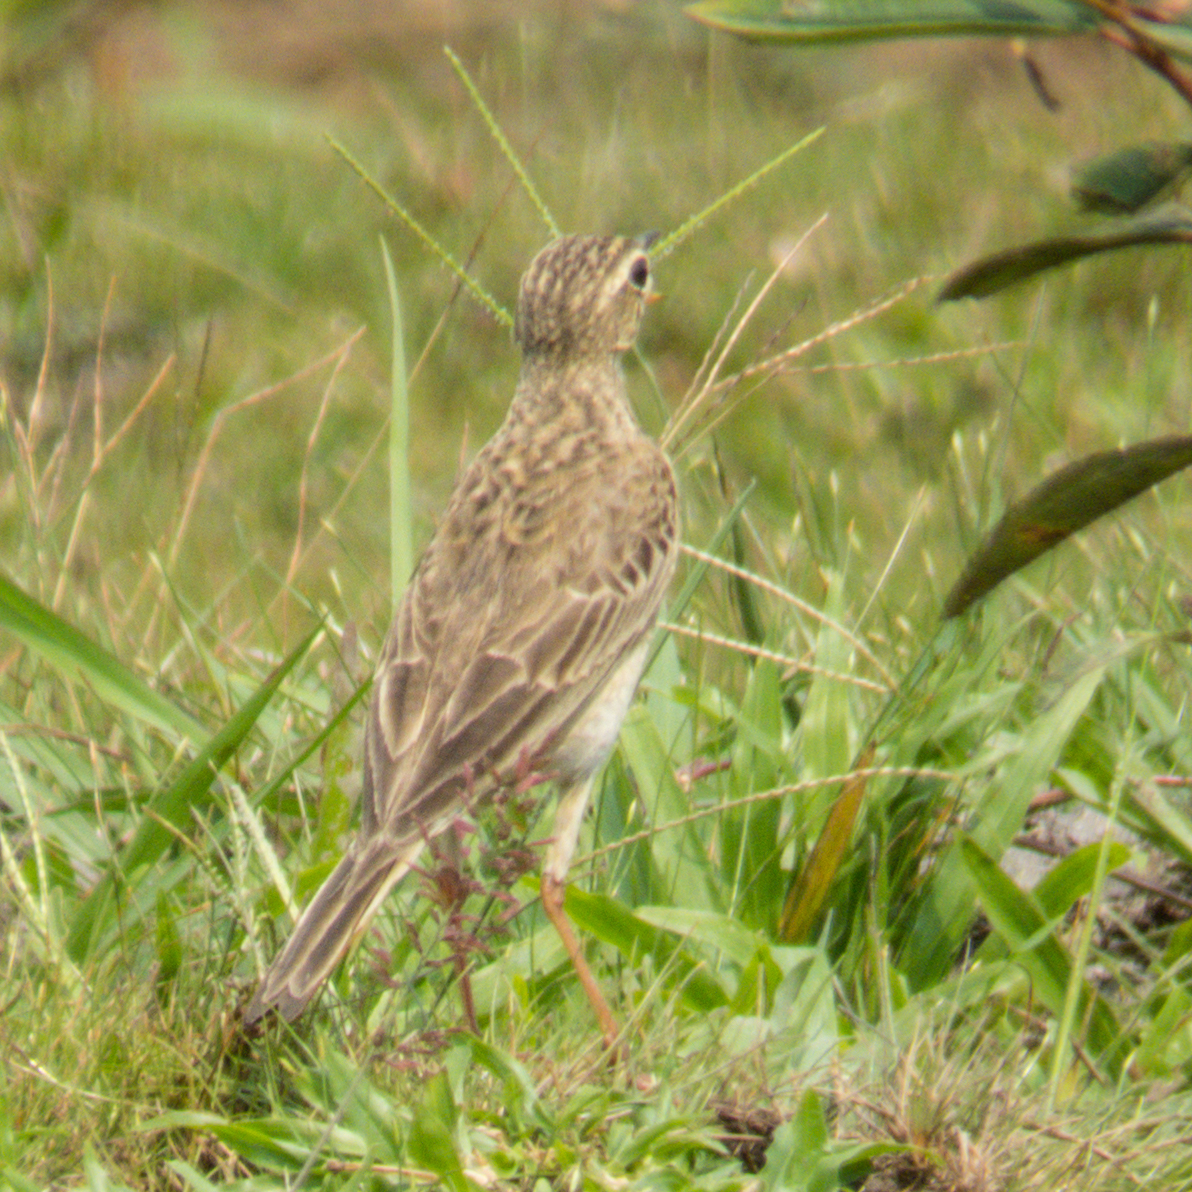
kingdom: Animalia
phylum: Chordata
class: Aves
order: Passeriformes
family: Motacillidae
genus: Anthus
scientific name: Anthus rufulus
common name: Paddyfield pipit
